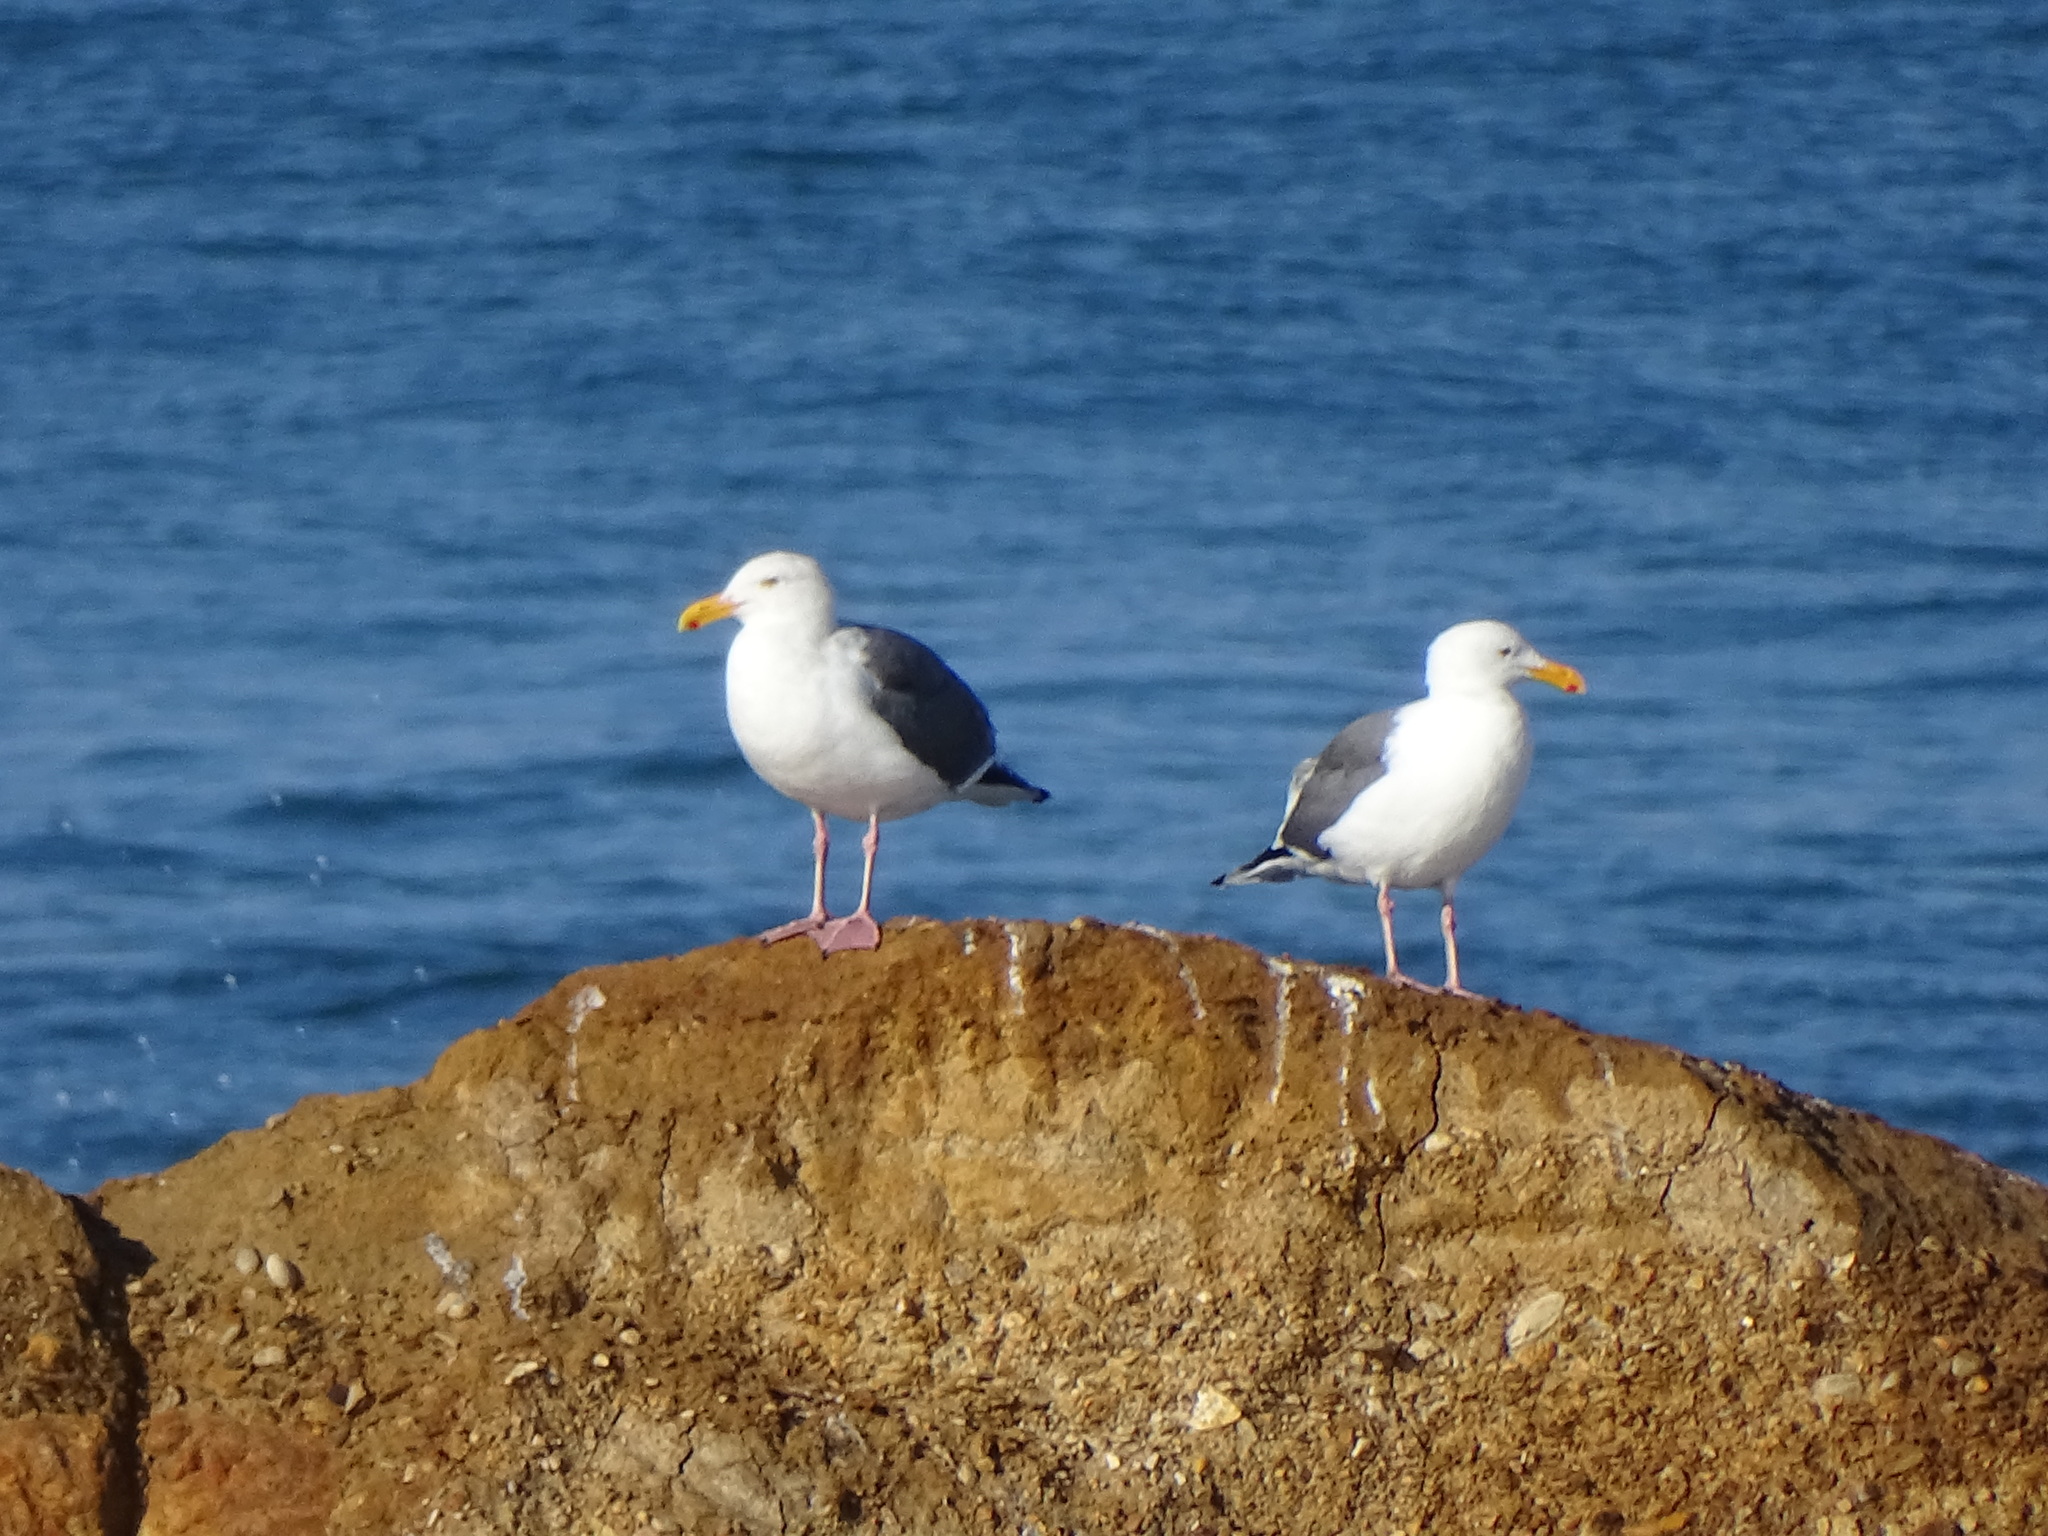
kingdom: Animalia
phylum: Chordata
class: Aves
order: Charadriiformes
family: Laridae
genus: Larus
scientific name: Larus occidentalis
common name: Western gull
